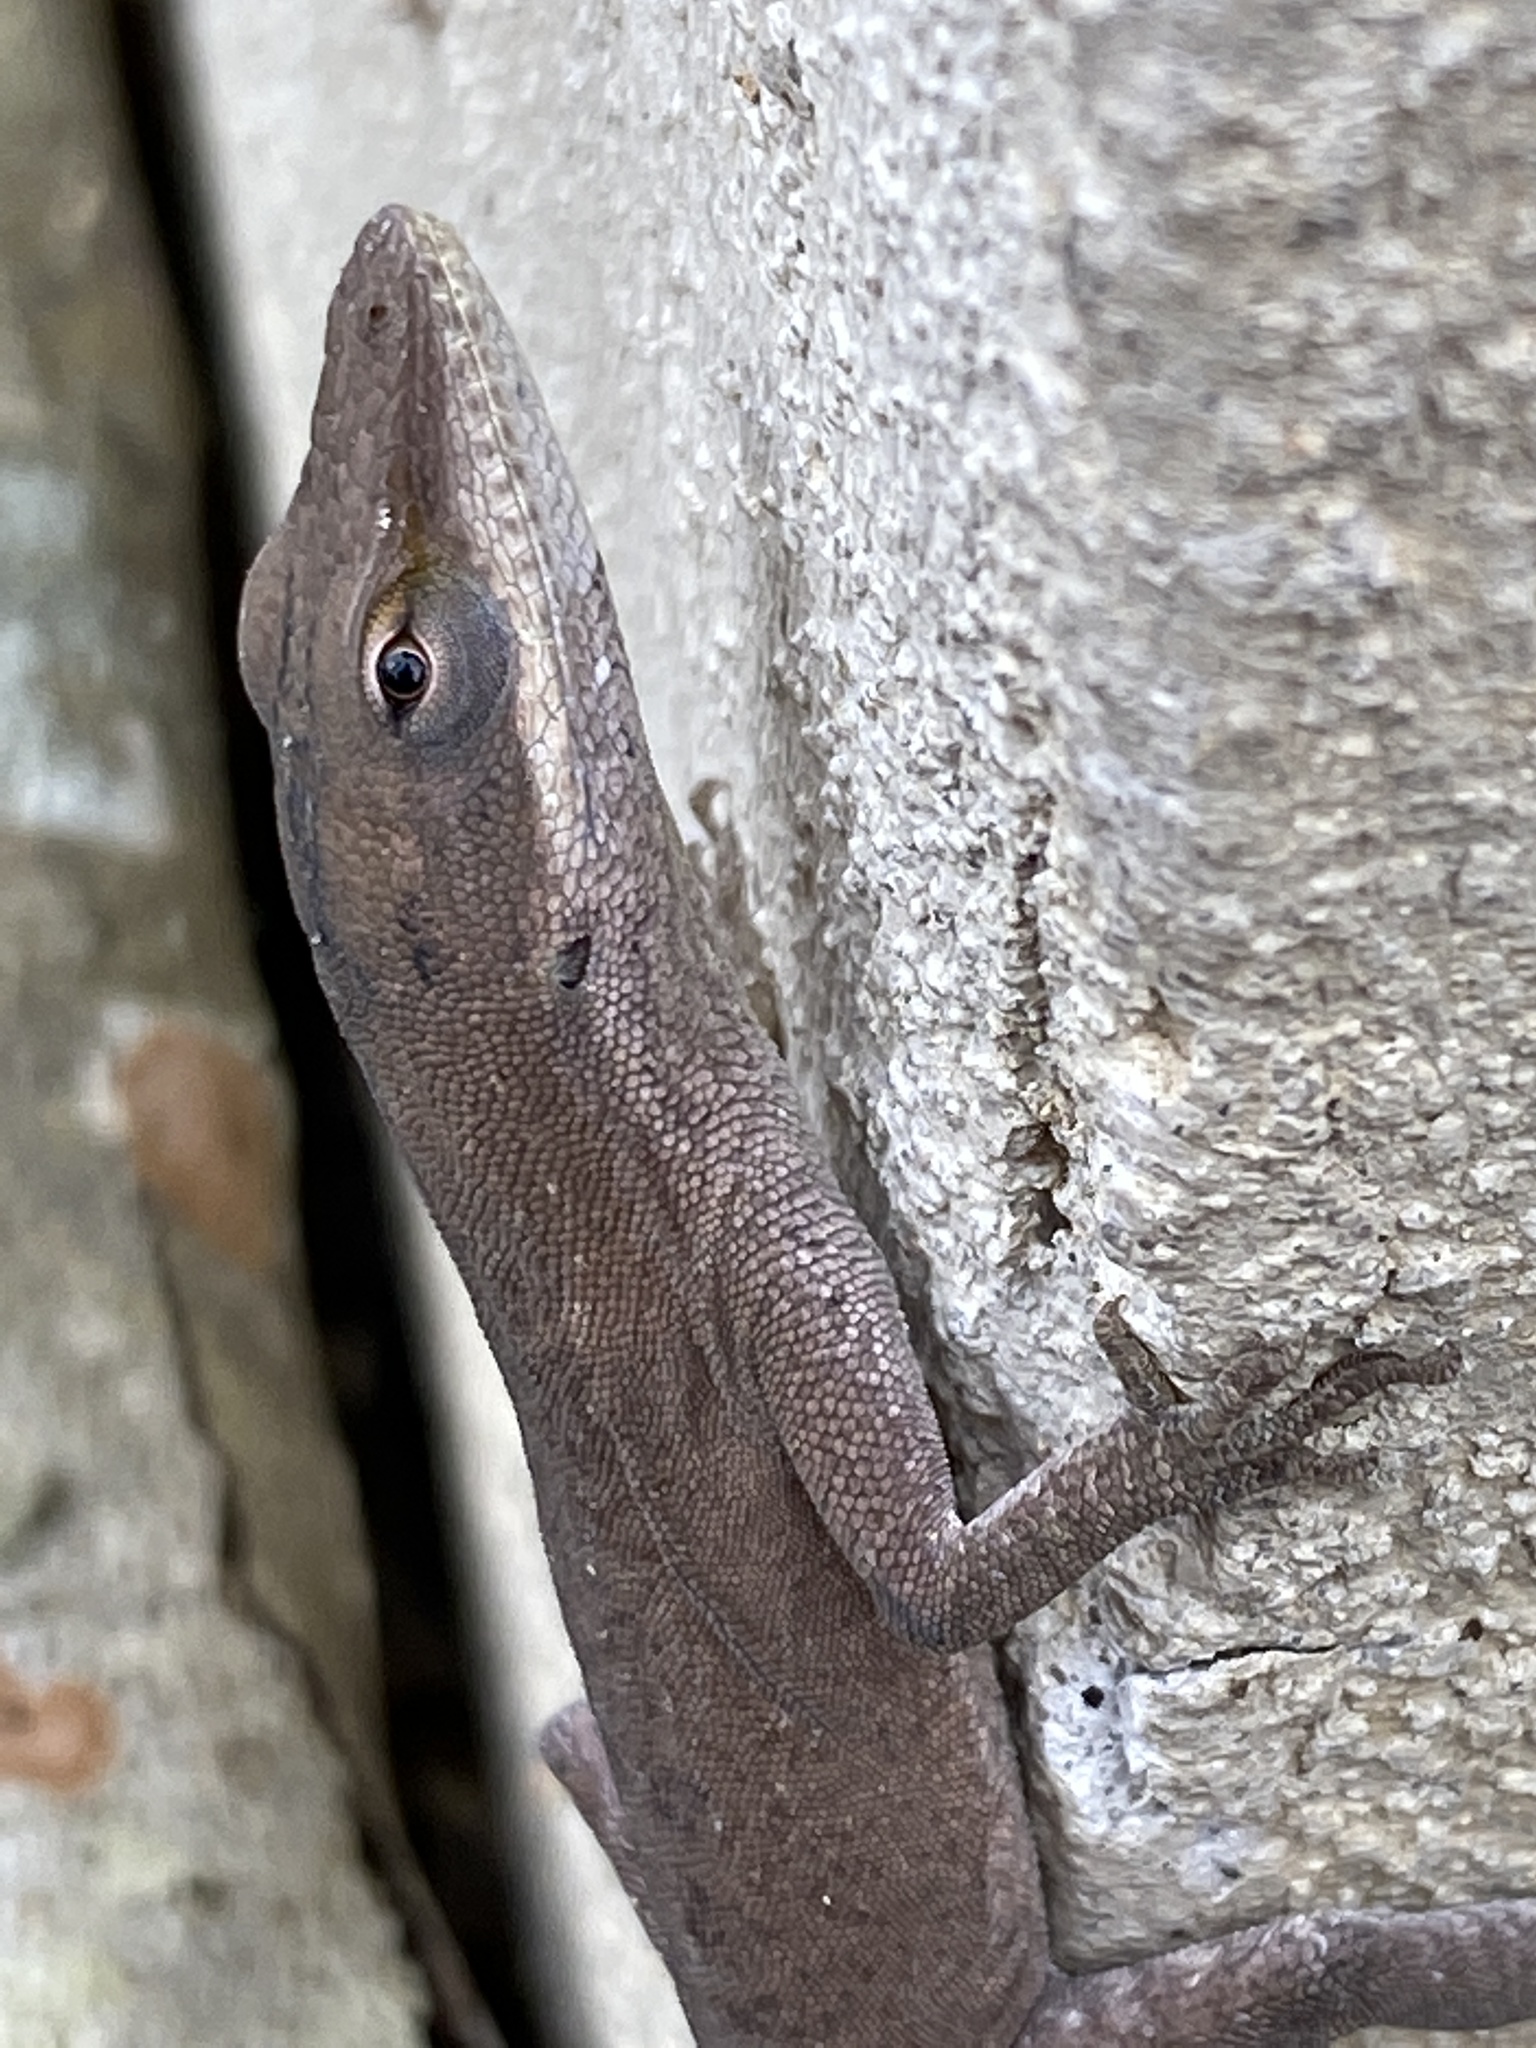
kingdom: Animalia
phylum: Chordata
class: Squamata
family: Dactyloidae
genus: Anolis
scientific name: Anolis carolinensis
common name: Green anole
